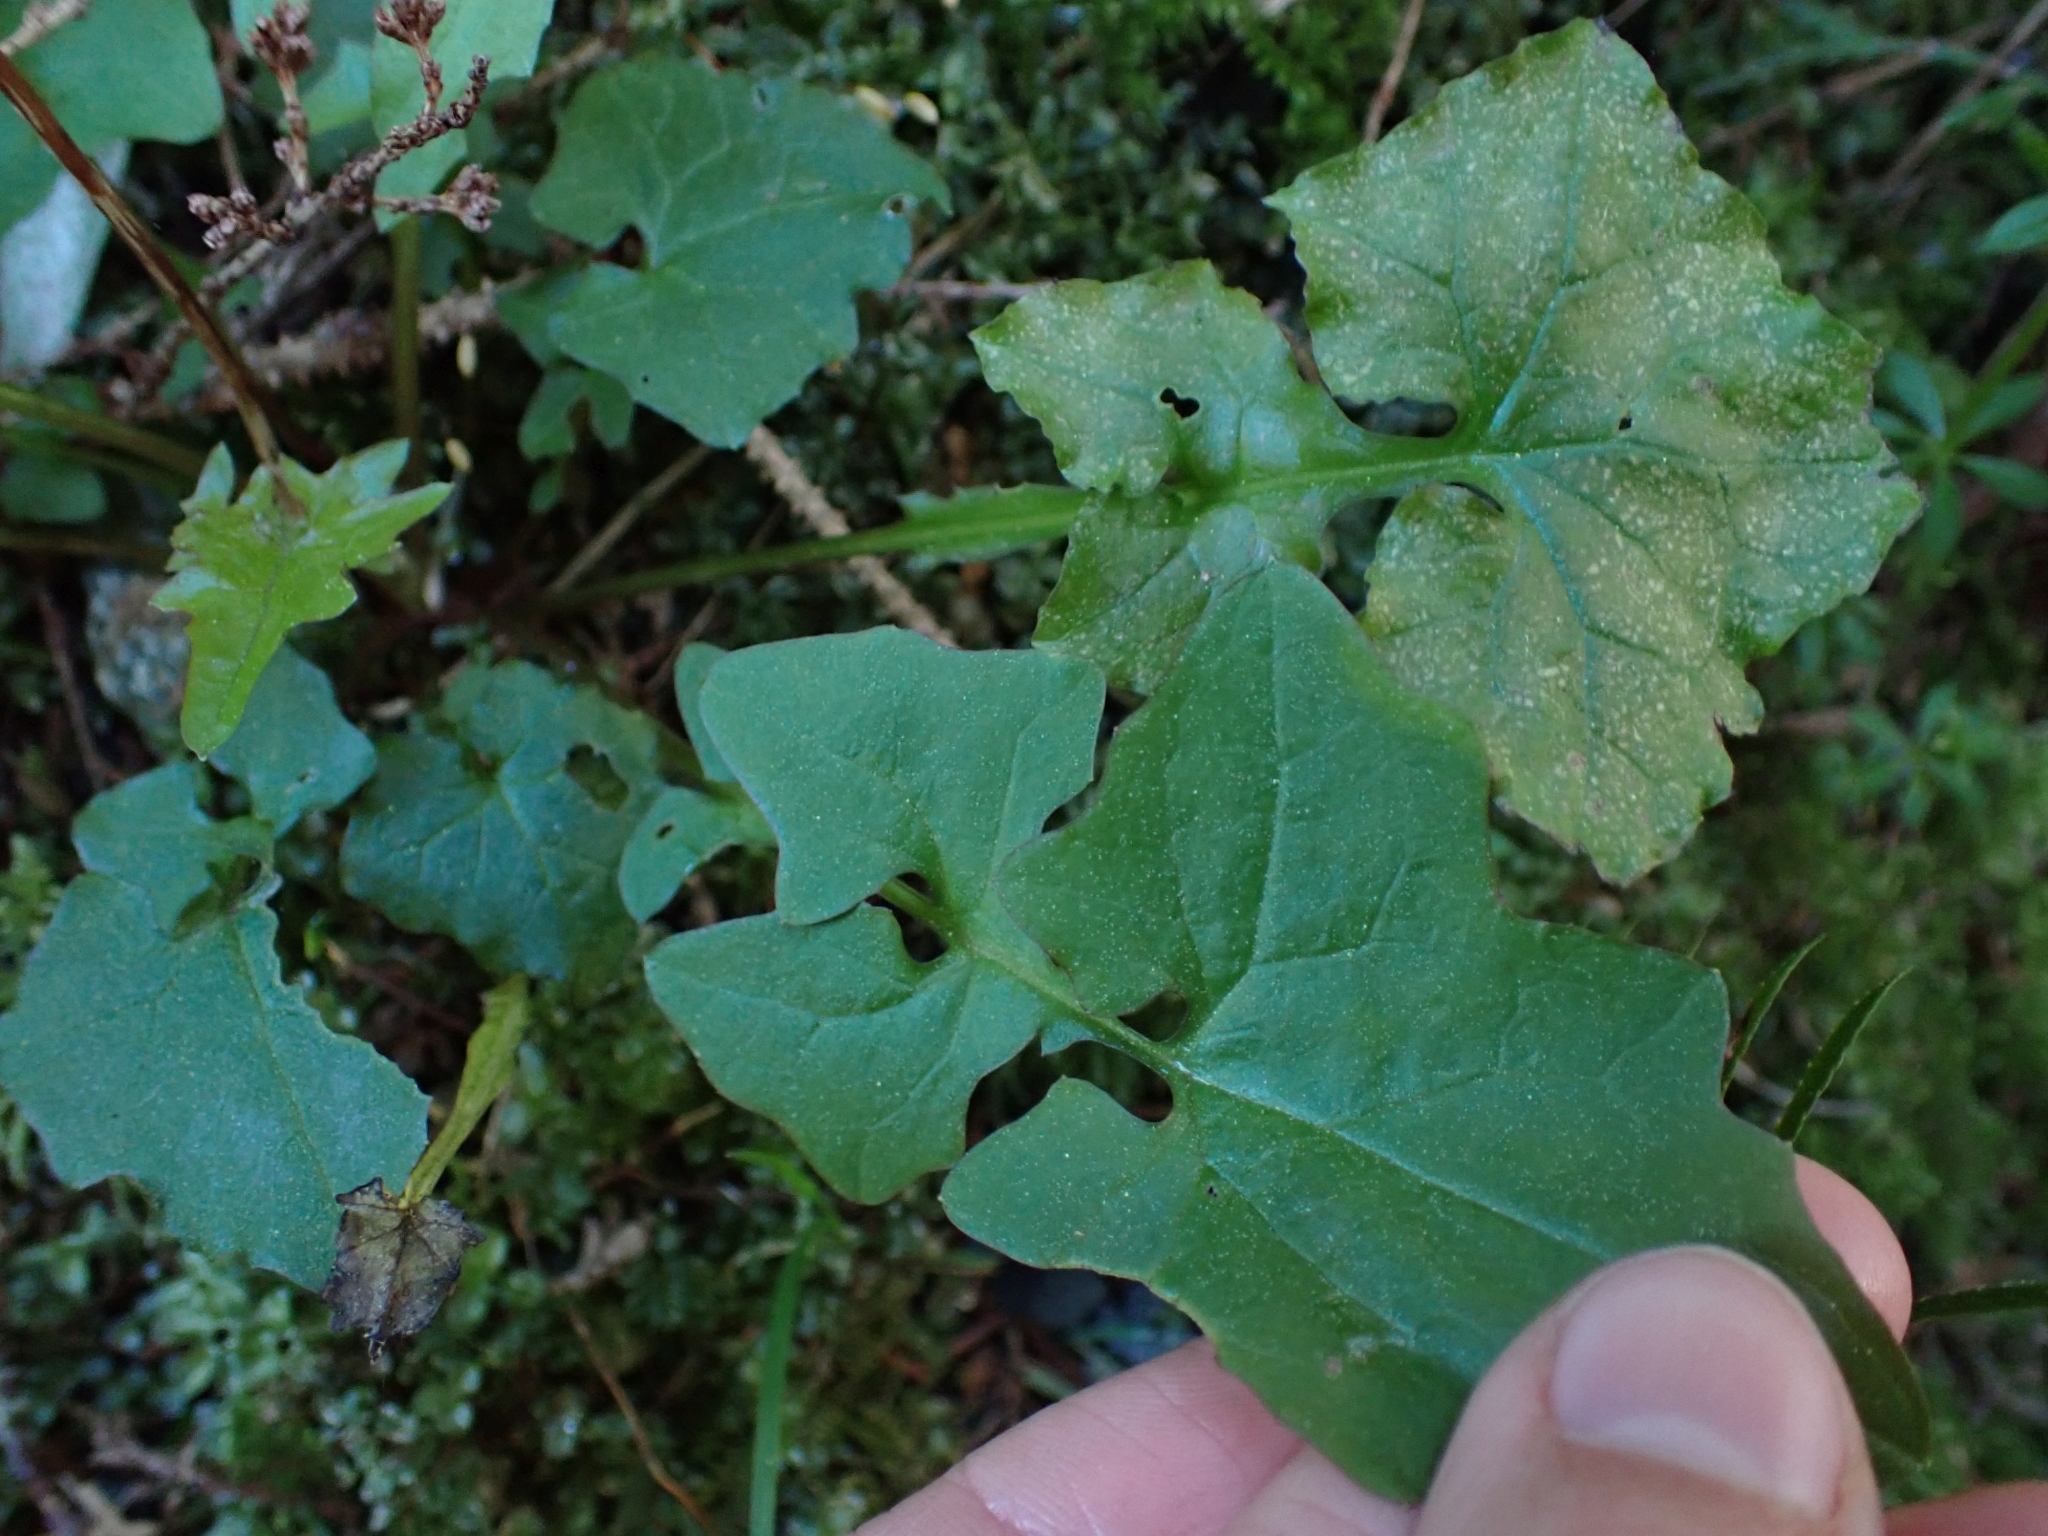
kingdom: Plantae
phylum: Tracheophyta
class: Magnoliopsida
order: Asterales
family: Asteraceae
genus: Mycelis
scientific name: Mycelis muralis
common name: Wall lettuce
